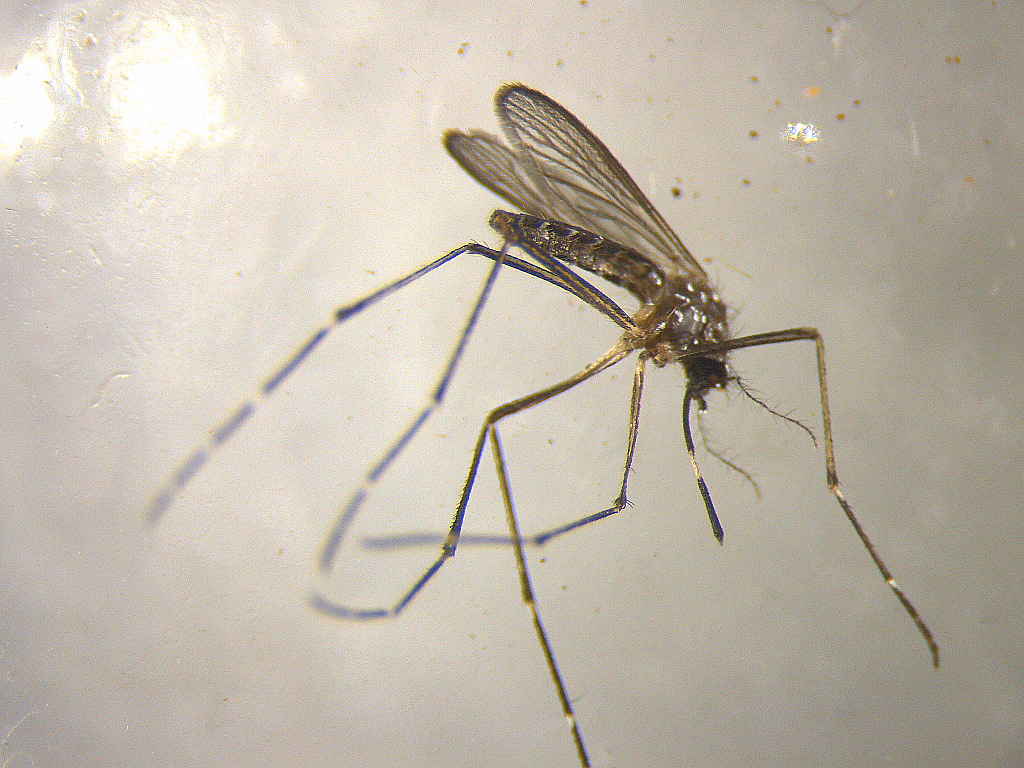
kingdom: Animalia
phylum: Arthropoda
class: Insecta
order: Diptera
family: Culicidae
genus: Aedes
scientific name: Aedes notoscriptus
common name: Australian backyard mosquito
